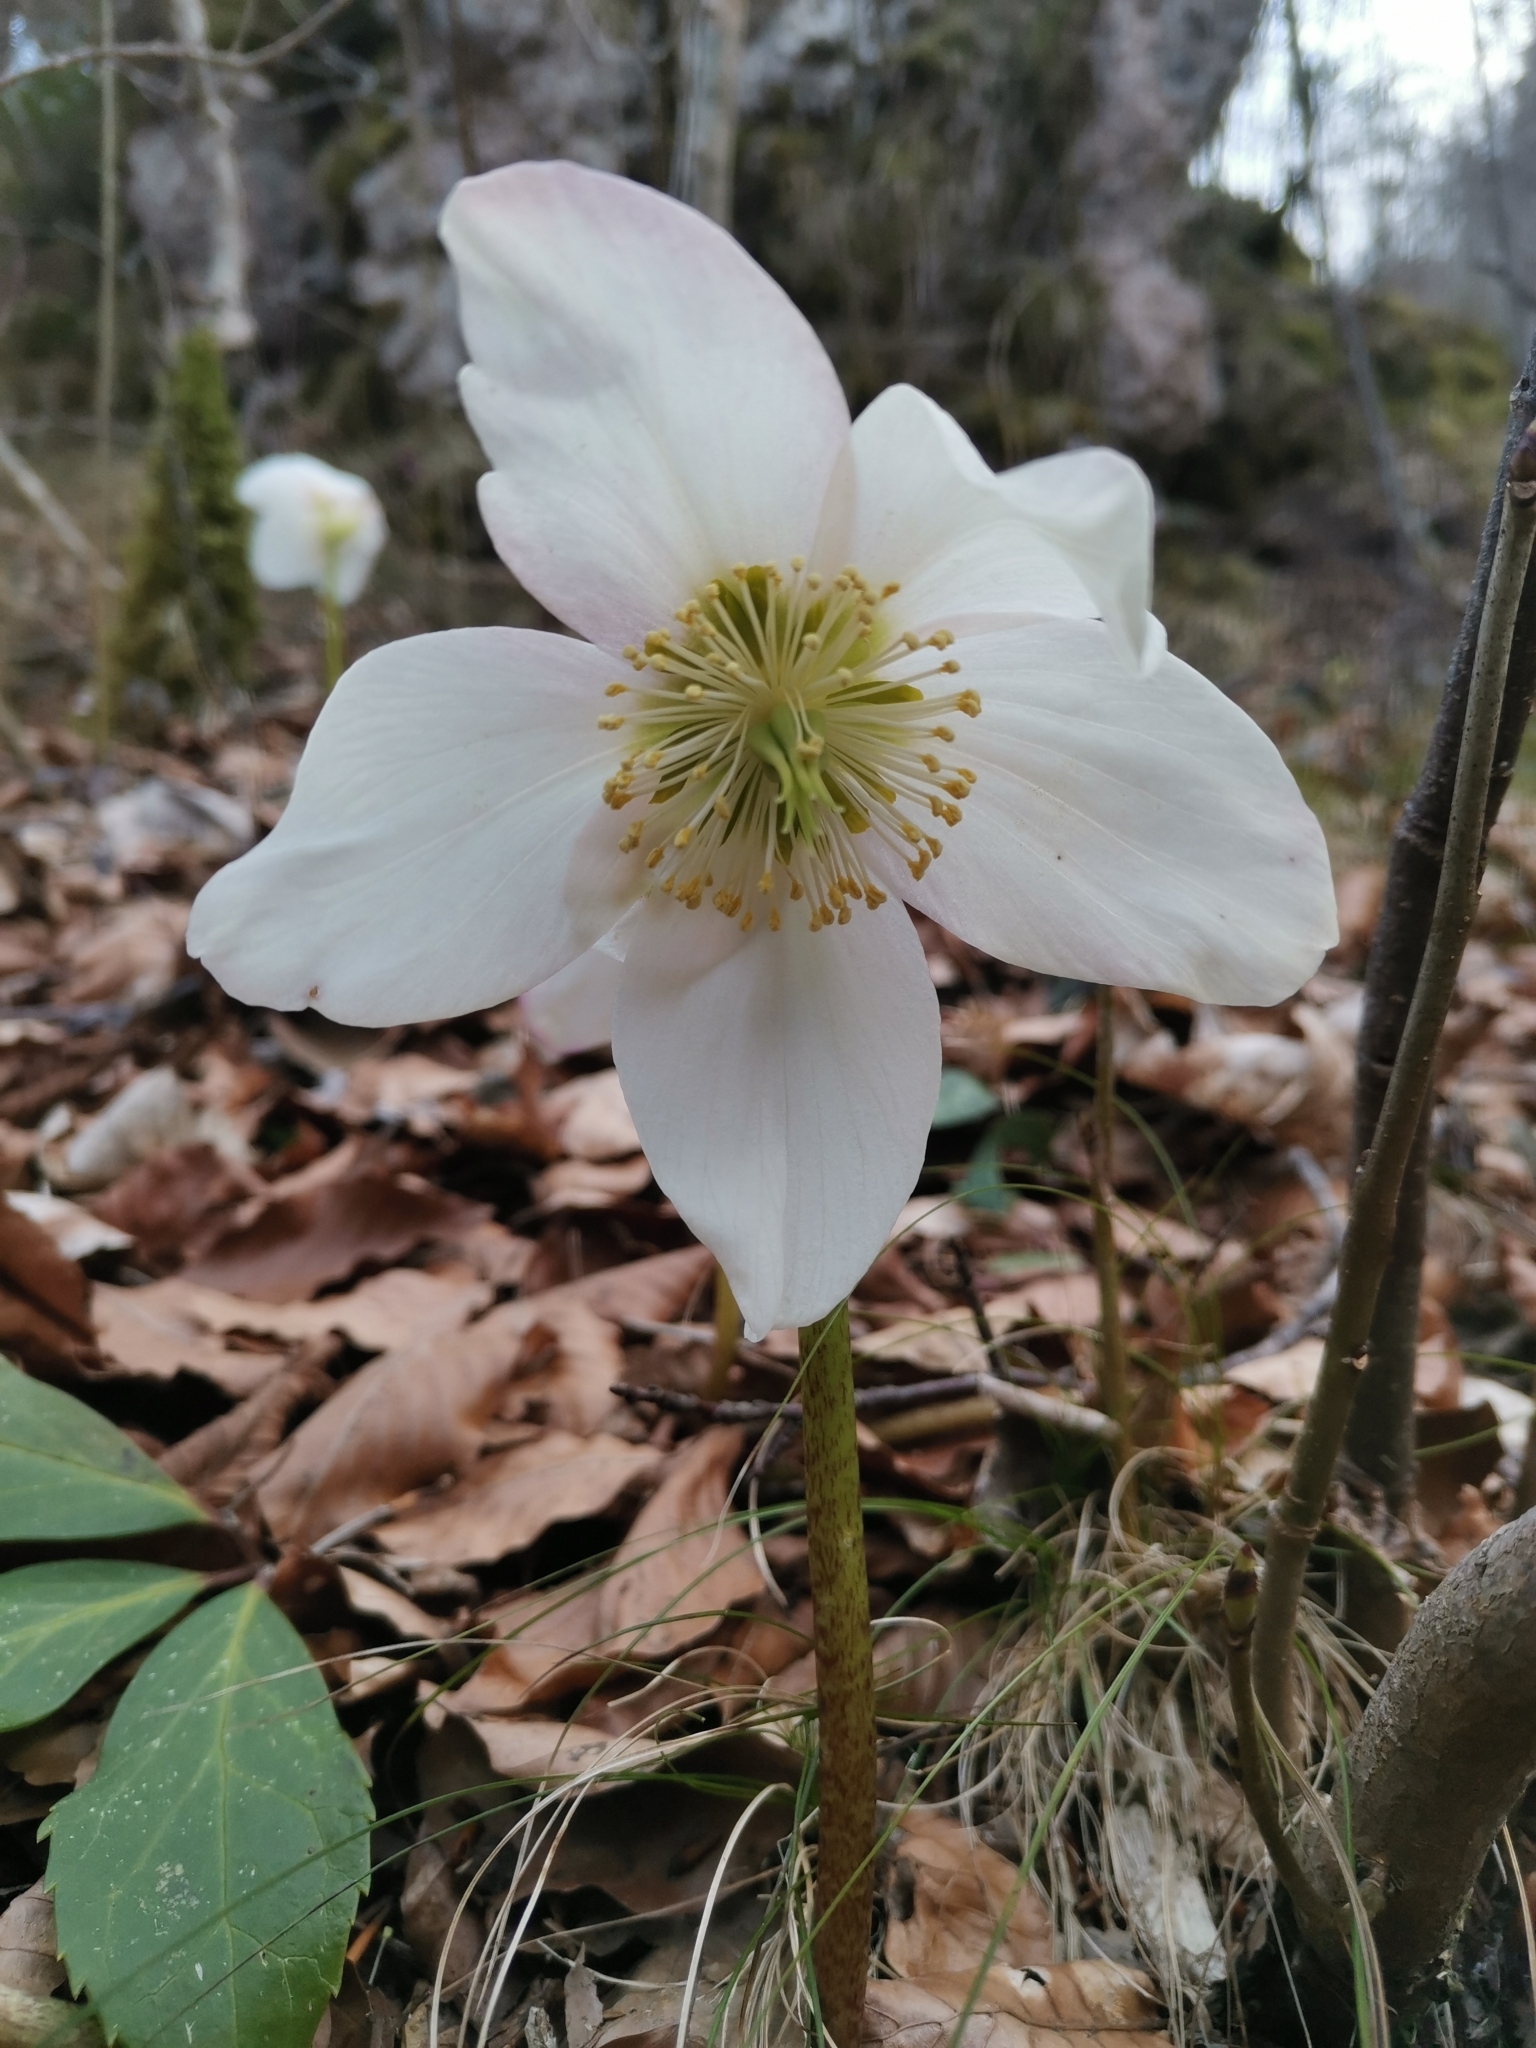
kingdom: Plantae
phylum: Tracheophyta
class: Magnoliopsida
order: Ranunculales
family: Ranunculaceae
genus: Helleborus
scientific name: Helleborus niger
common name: Black hellebore
